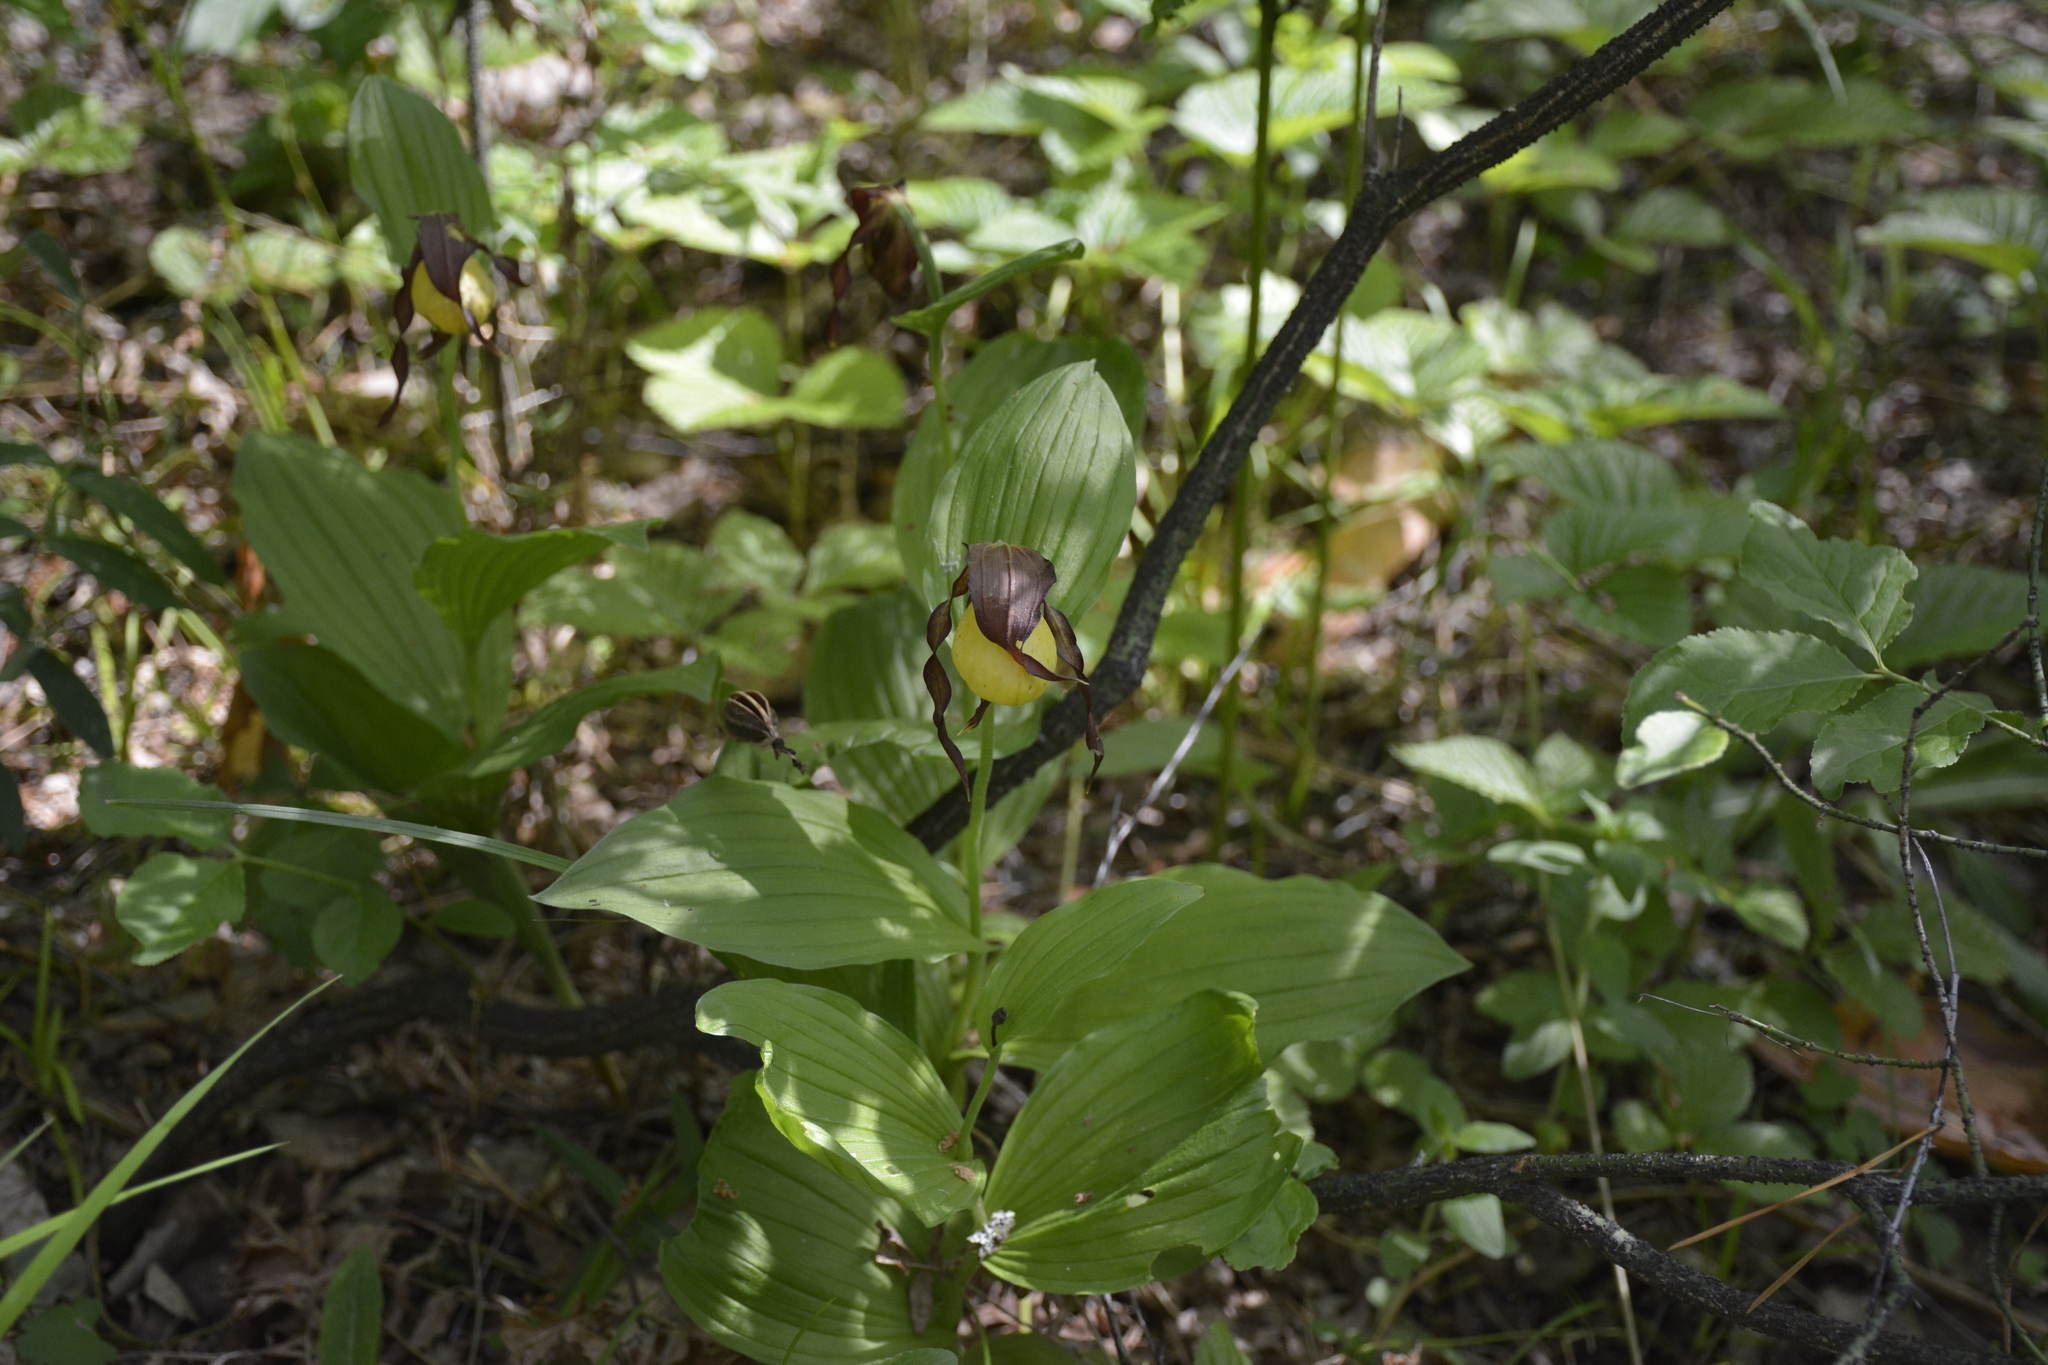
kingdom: Plantae
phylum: Tracheophyta
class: Liliopsida
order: Asparagales
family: Orchidaceae
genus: Cypripedium
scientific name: Cypripedium calceolus
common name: Lady's-slipper
